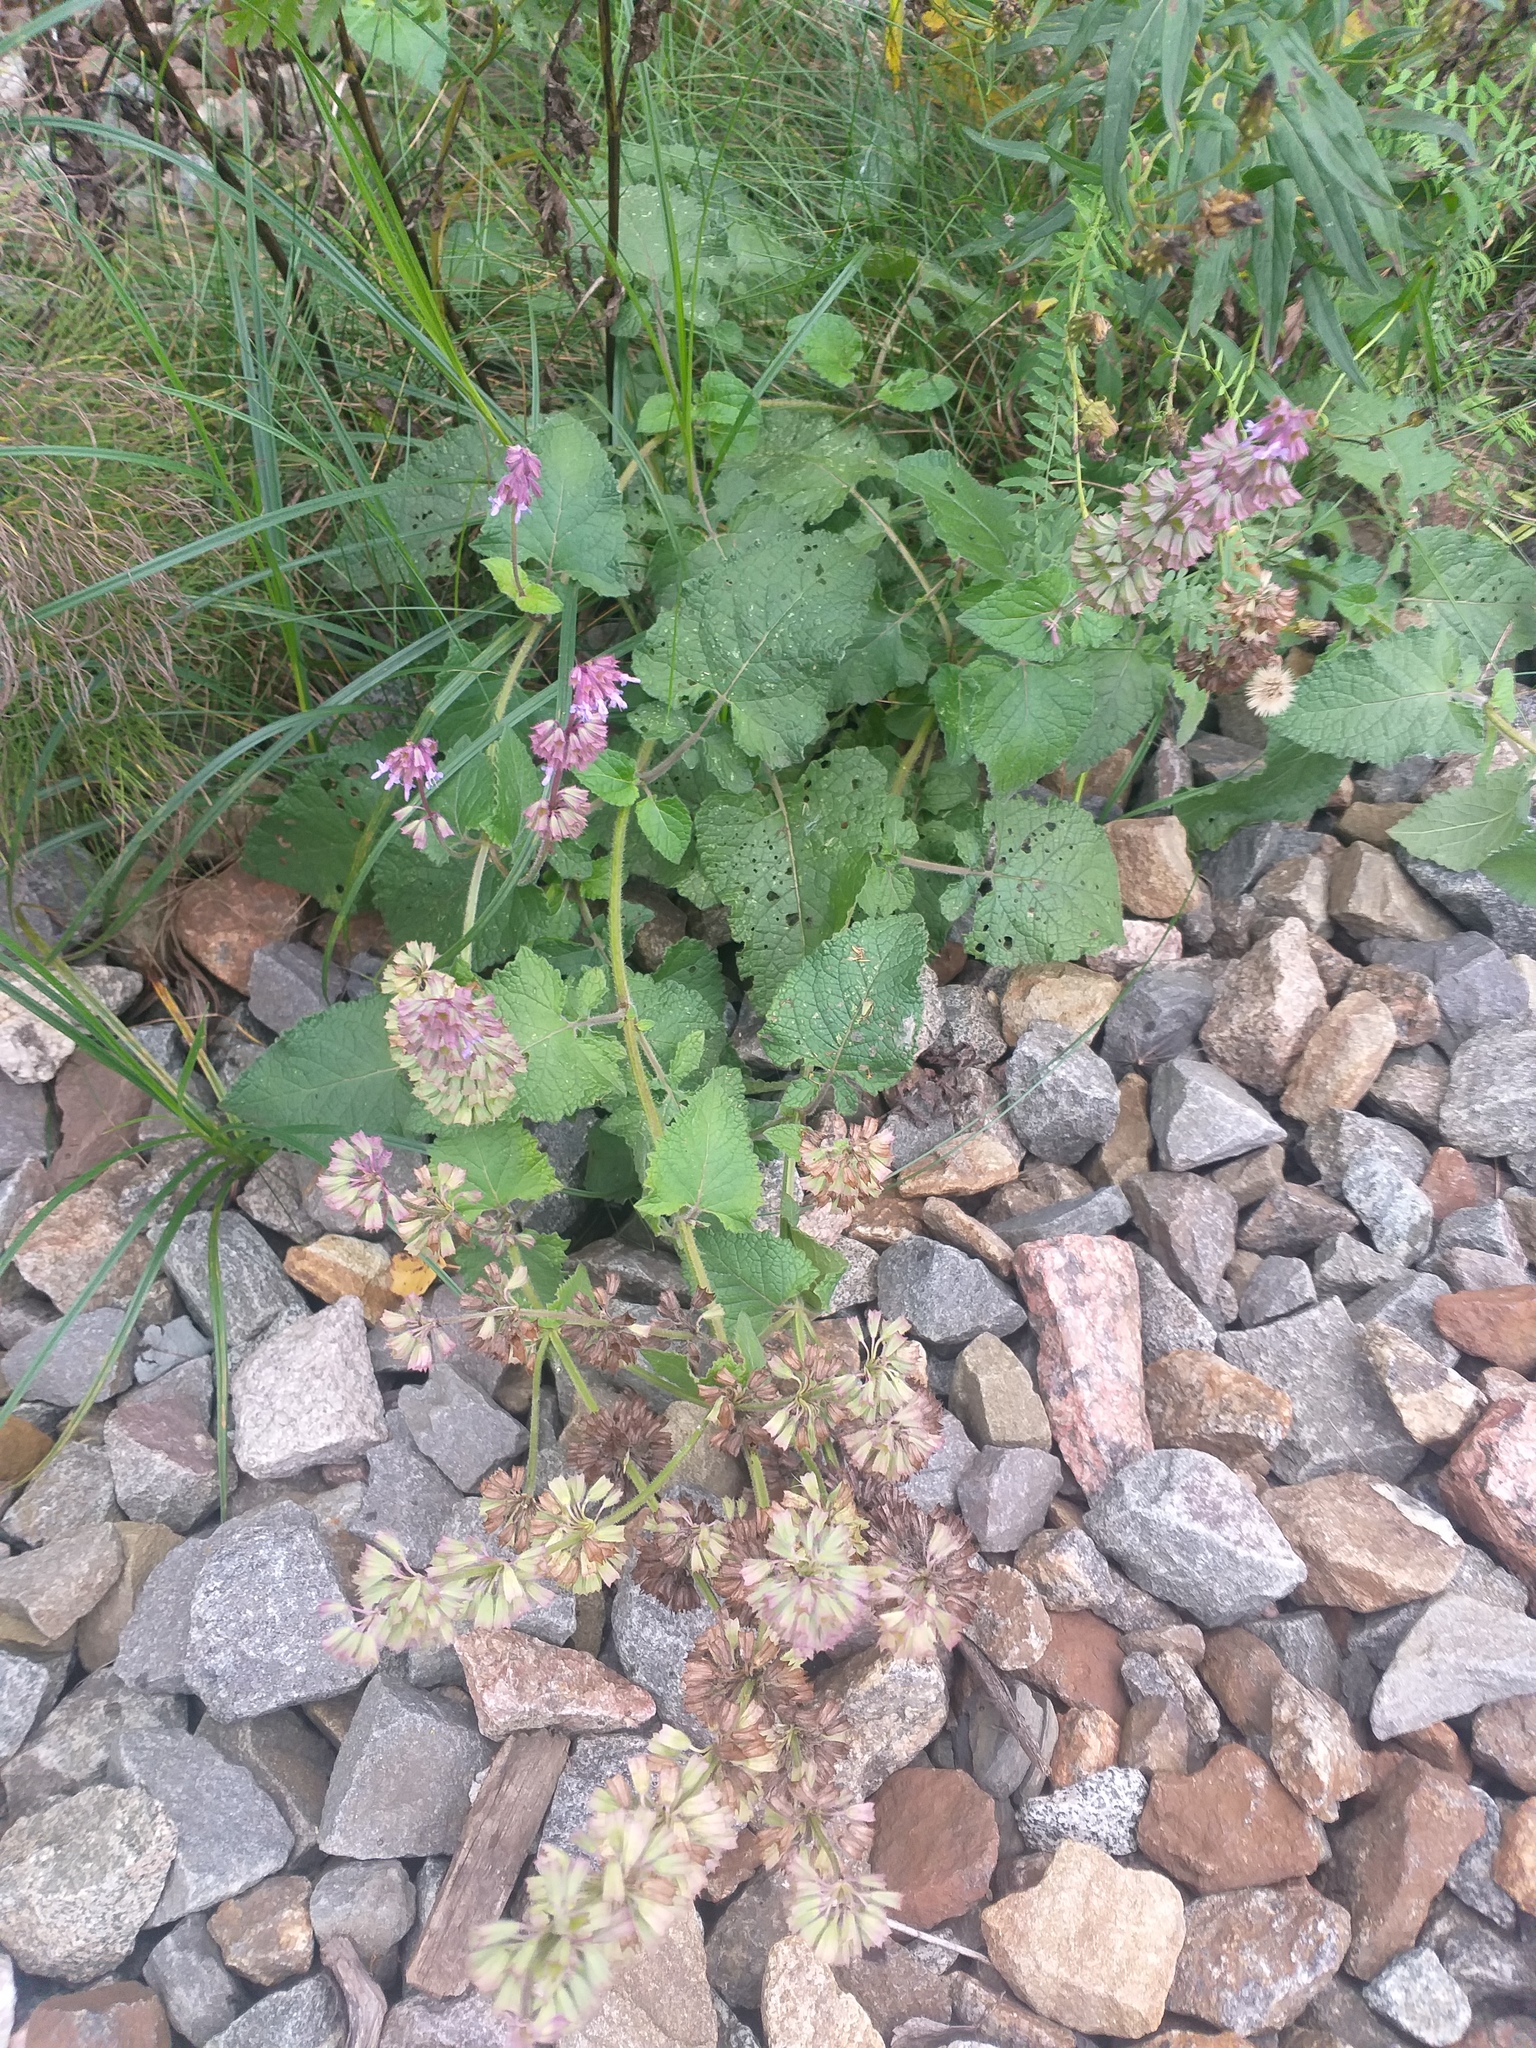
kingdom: Plantae
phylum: Tracheophyta
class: Magnoliopsida
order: Lamiales
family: Lamiaceae
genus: Salvia
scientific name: Salvia verticillata
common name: Whorled clary
